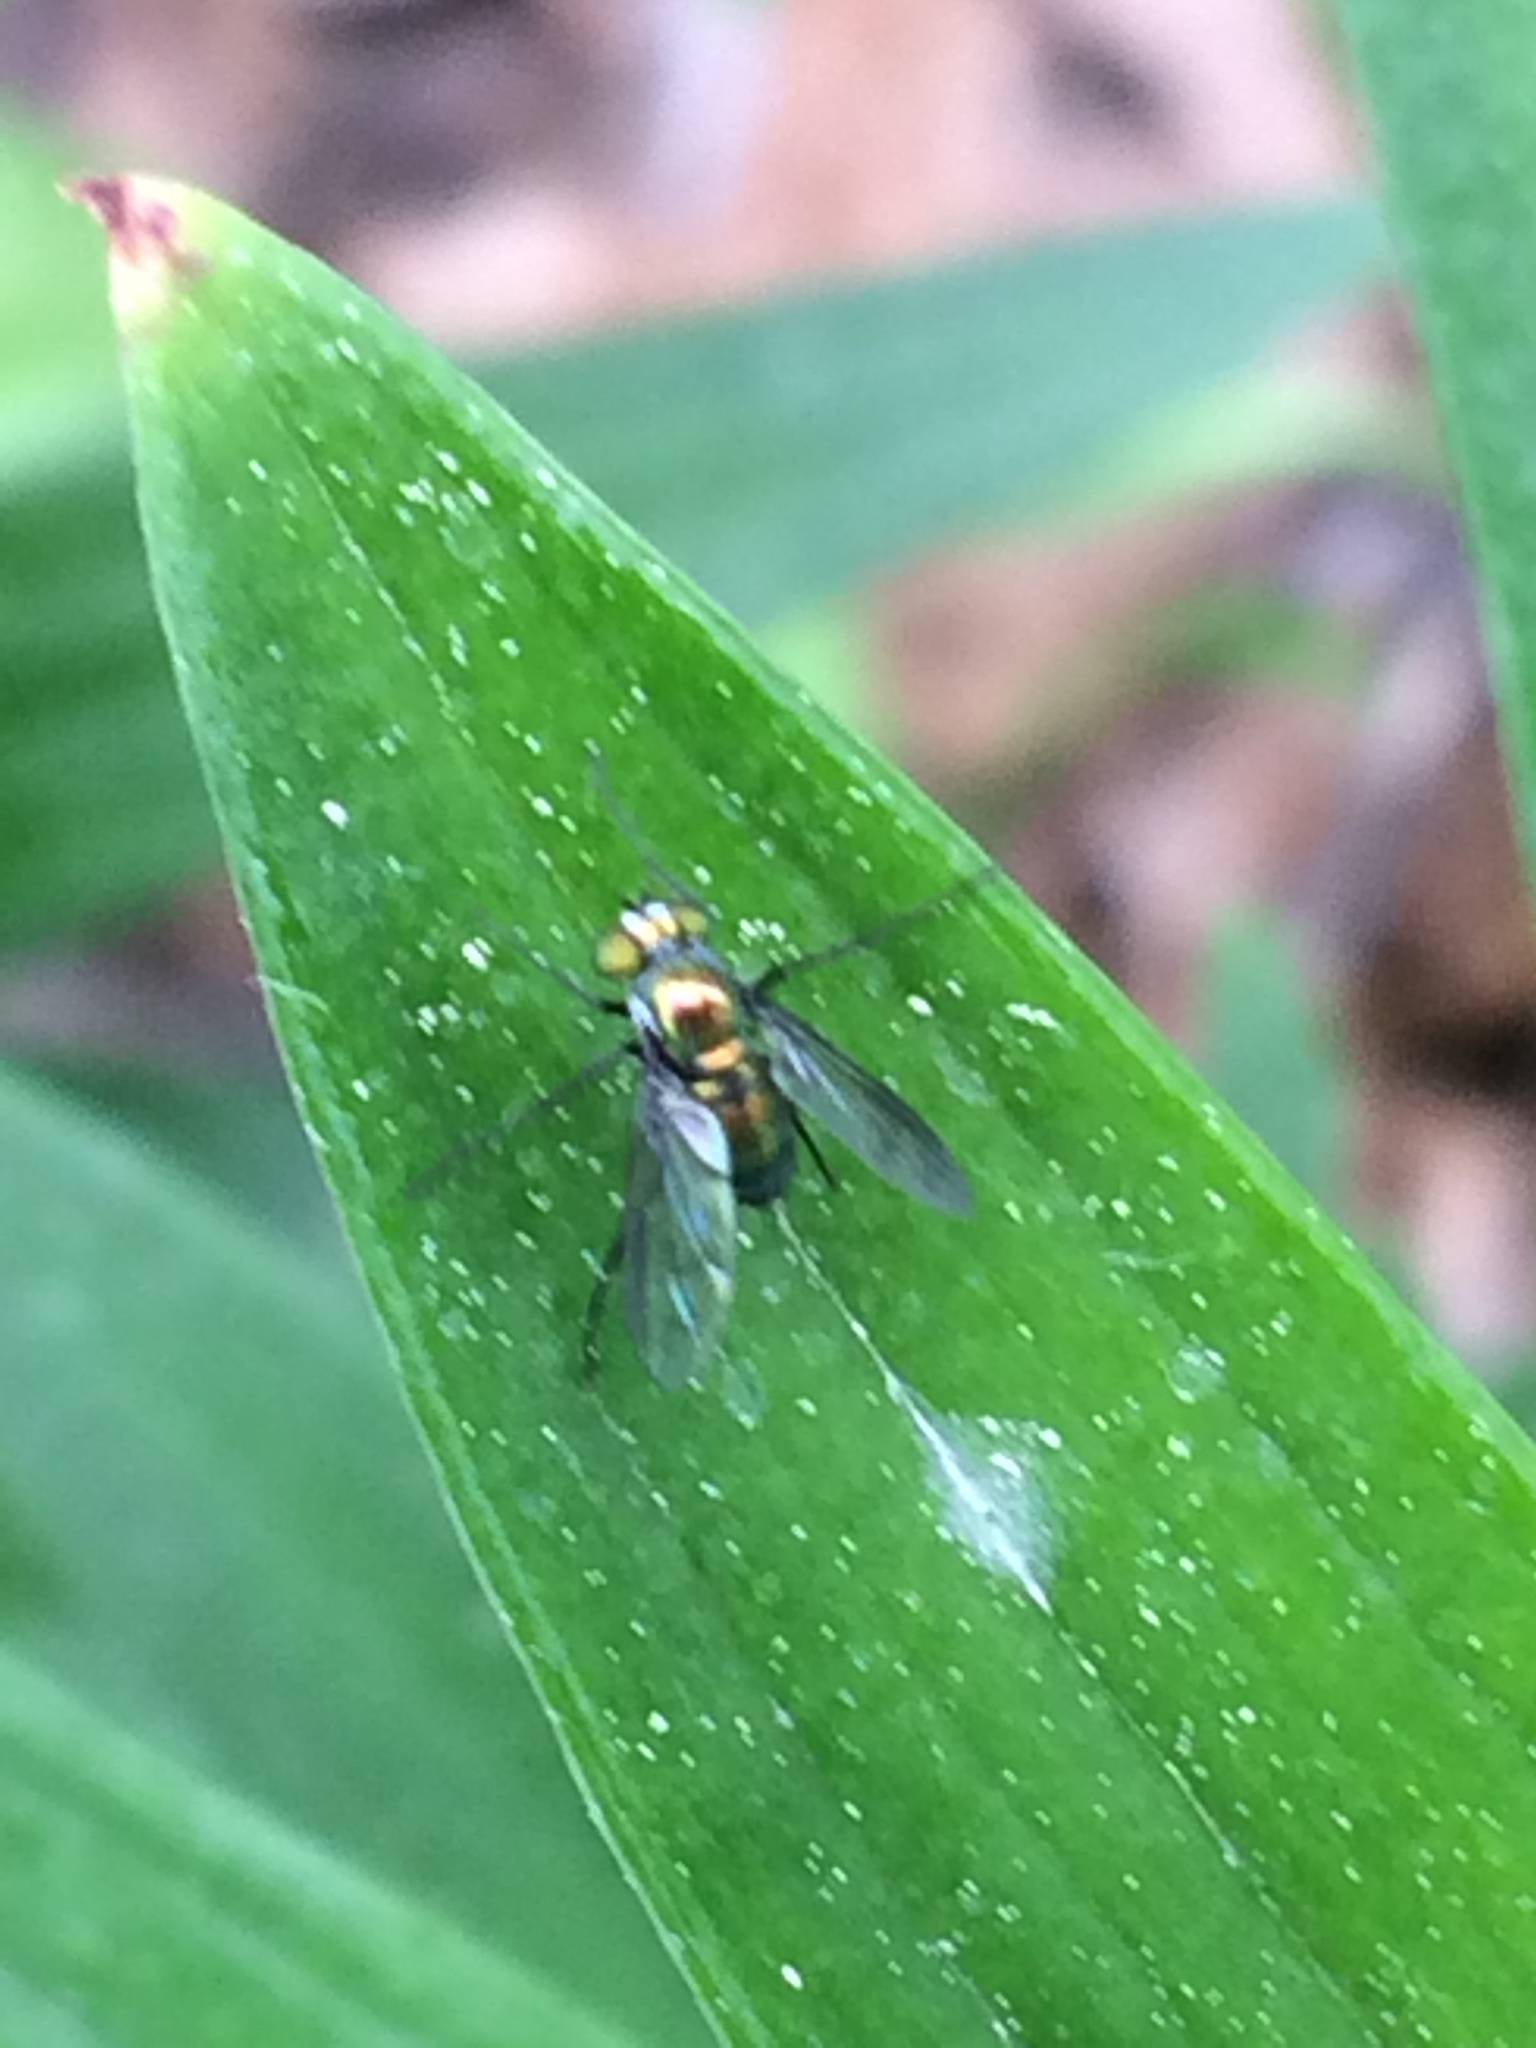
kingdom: Animalia
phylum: Arthropoda
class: Insecta
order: Diptera
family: Dolichopodidae
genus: Condylostylus
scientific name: Condylostylus patibulatus
